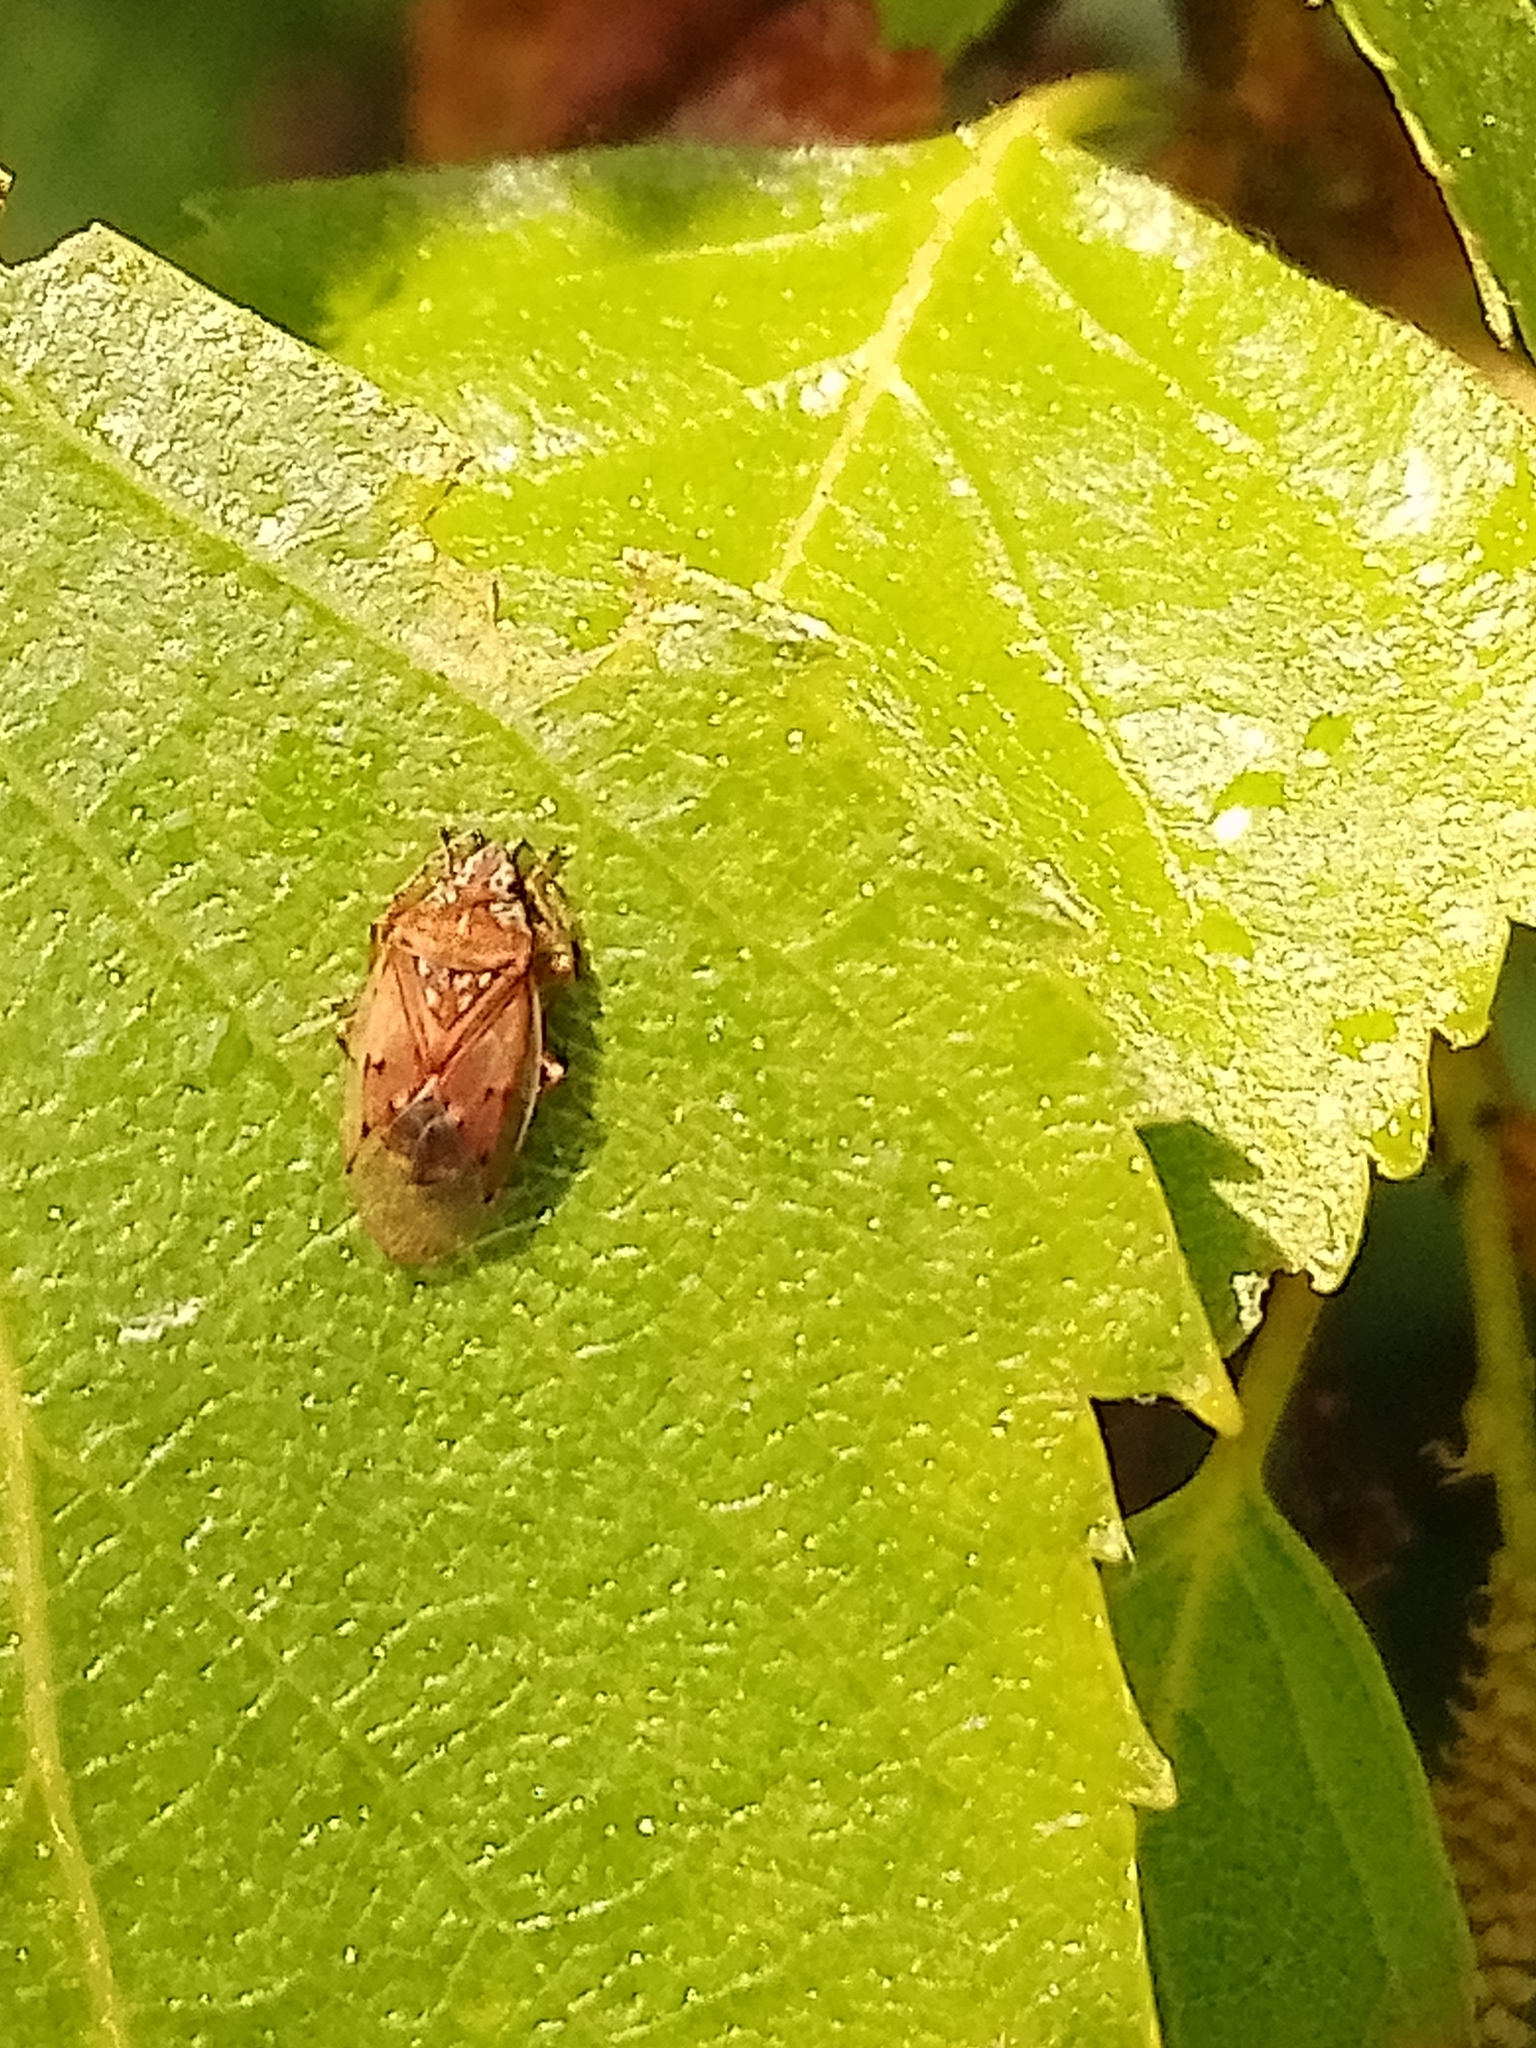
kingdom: Animalia
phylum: Arthropoda
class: Insecta
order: Hemiptera
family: Lygaeidae
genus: Kleidocerys
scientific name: Kleidocerys resedae
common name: Birch catkin bug
